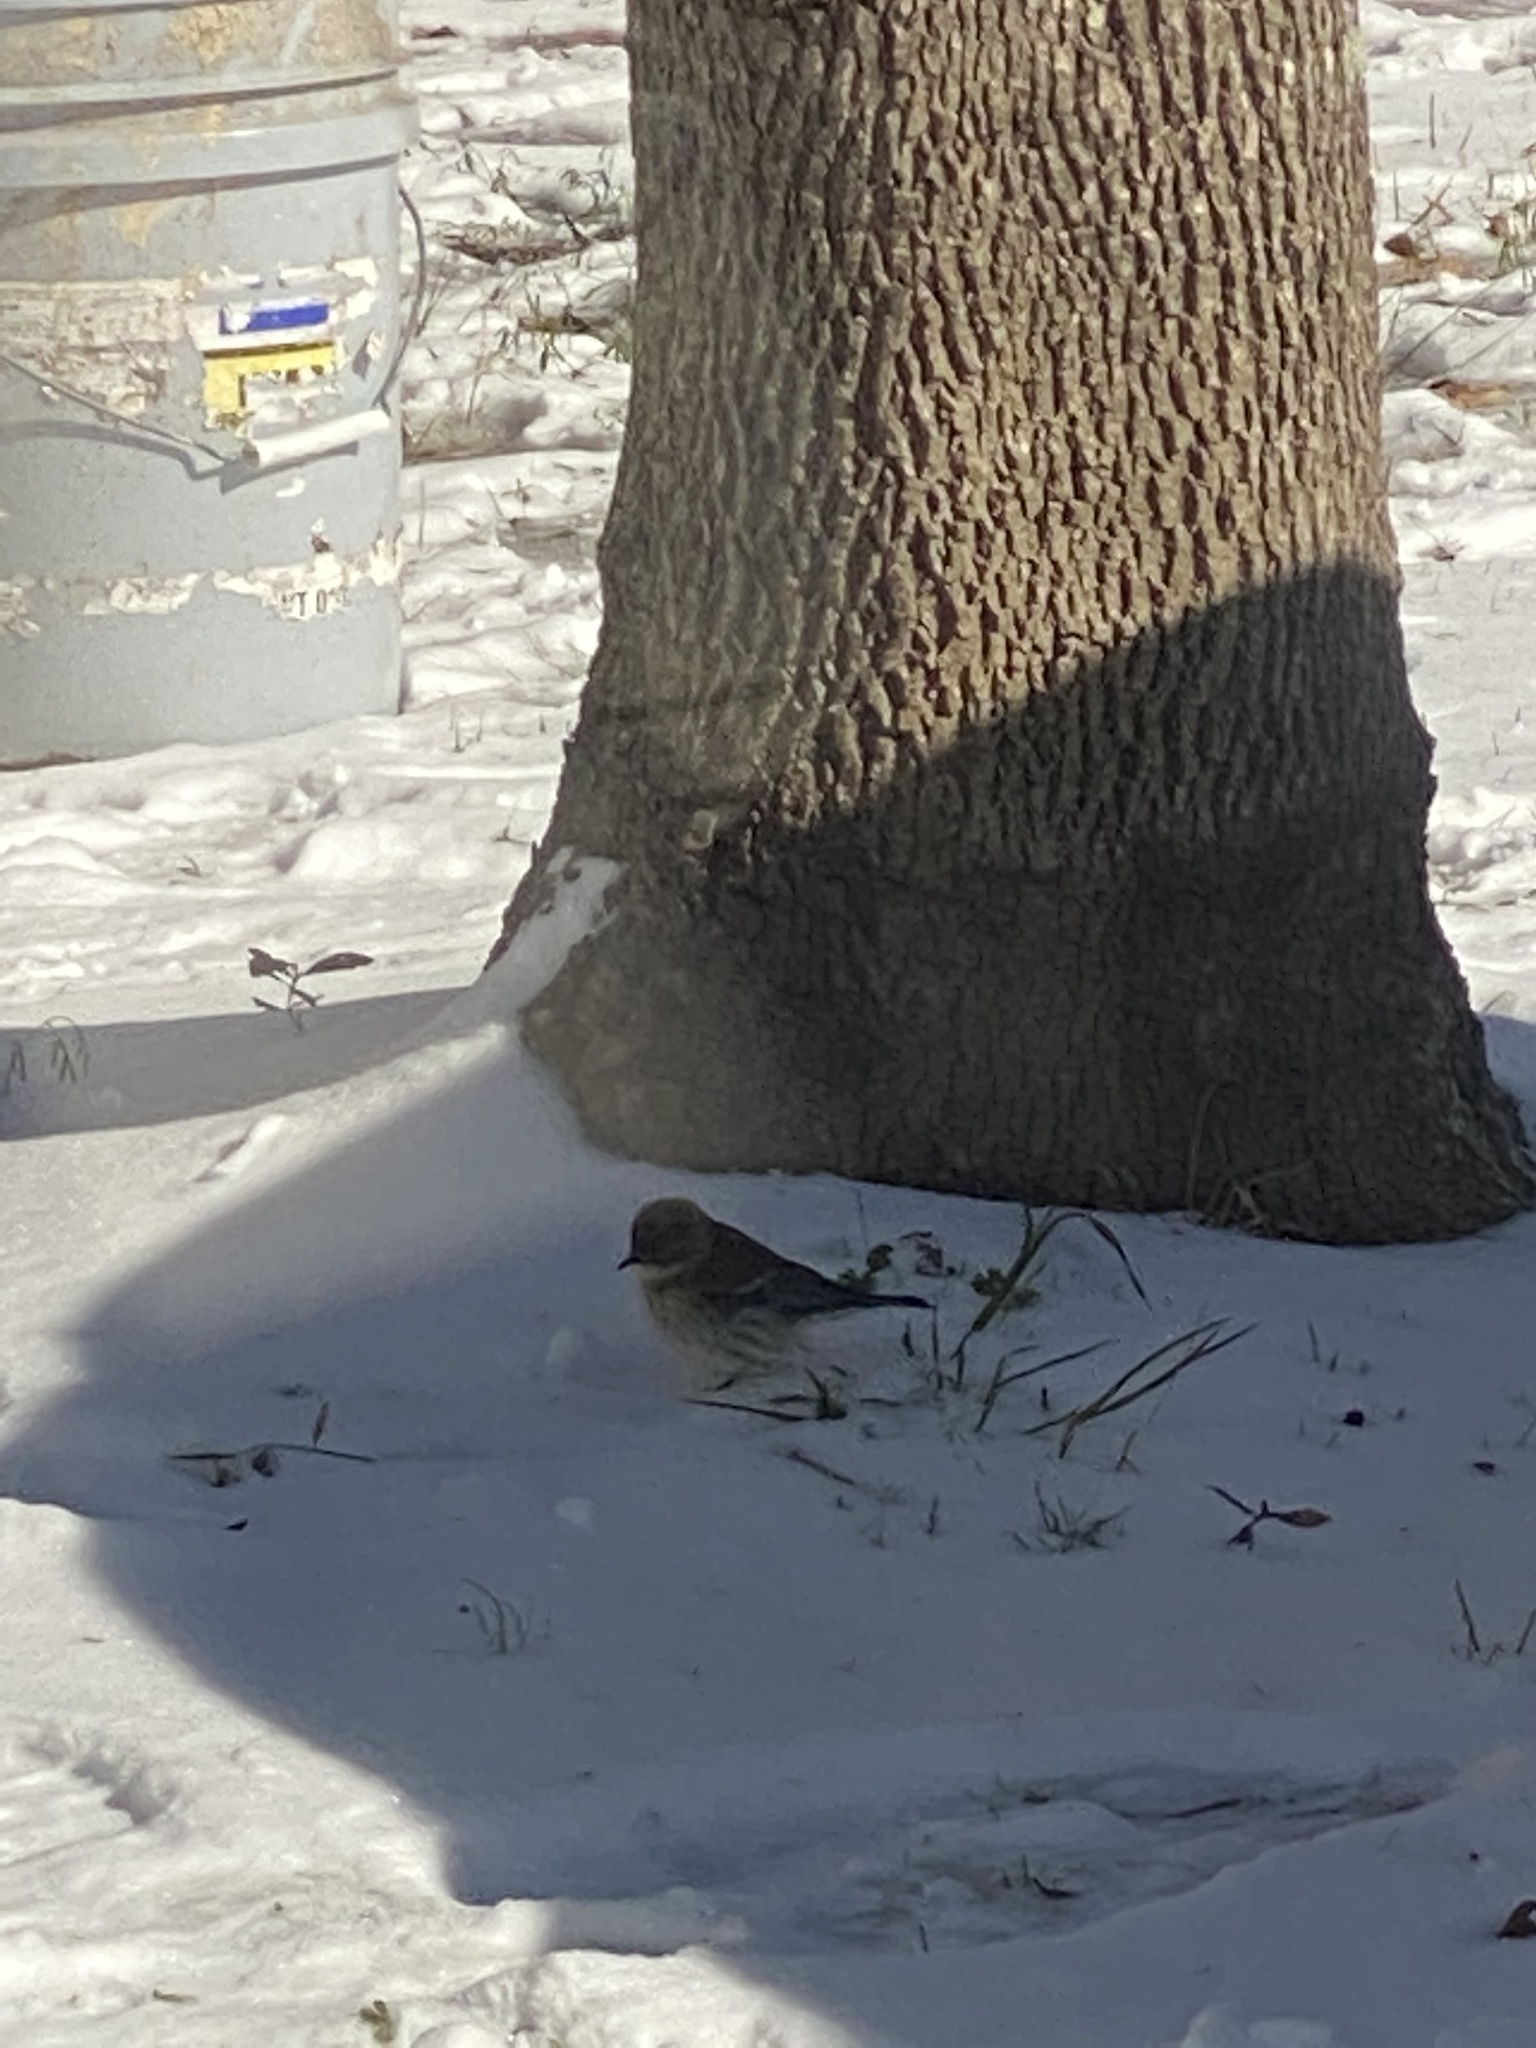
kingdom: Animalia
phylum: Chordata
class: Aves
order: Passeriformes
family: Parulidae
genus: Setophaga
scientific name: Setophaga coronata
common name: Myrtle warbler
